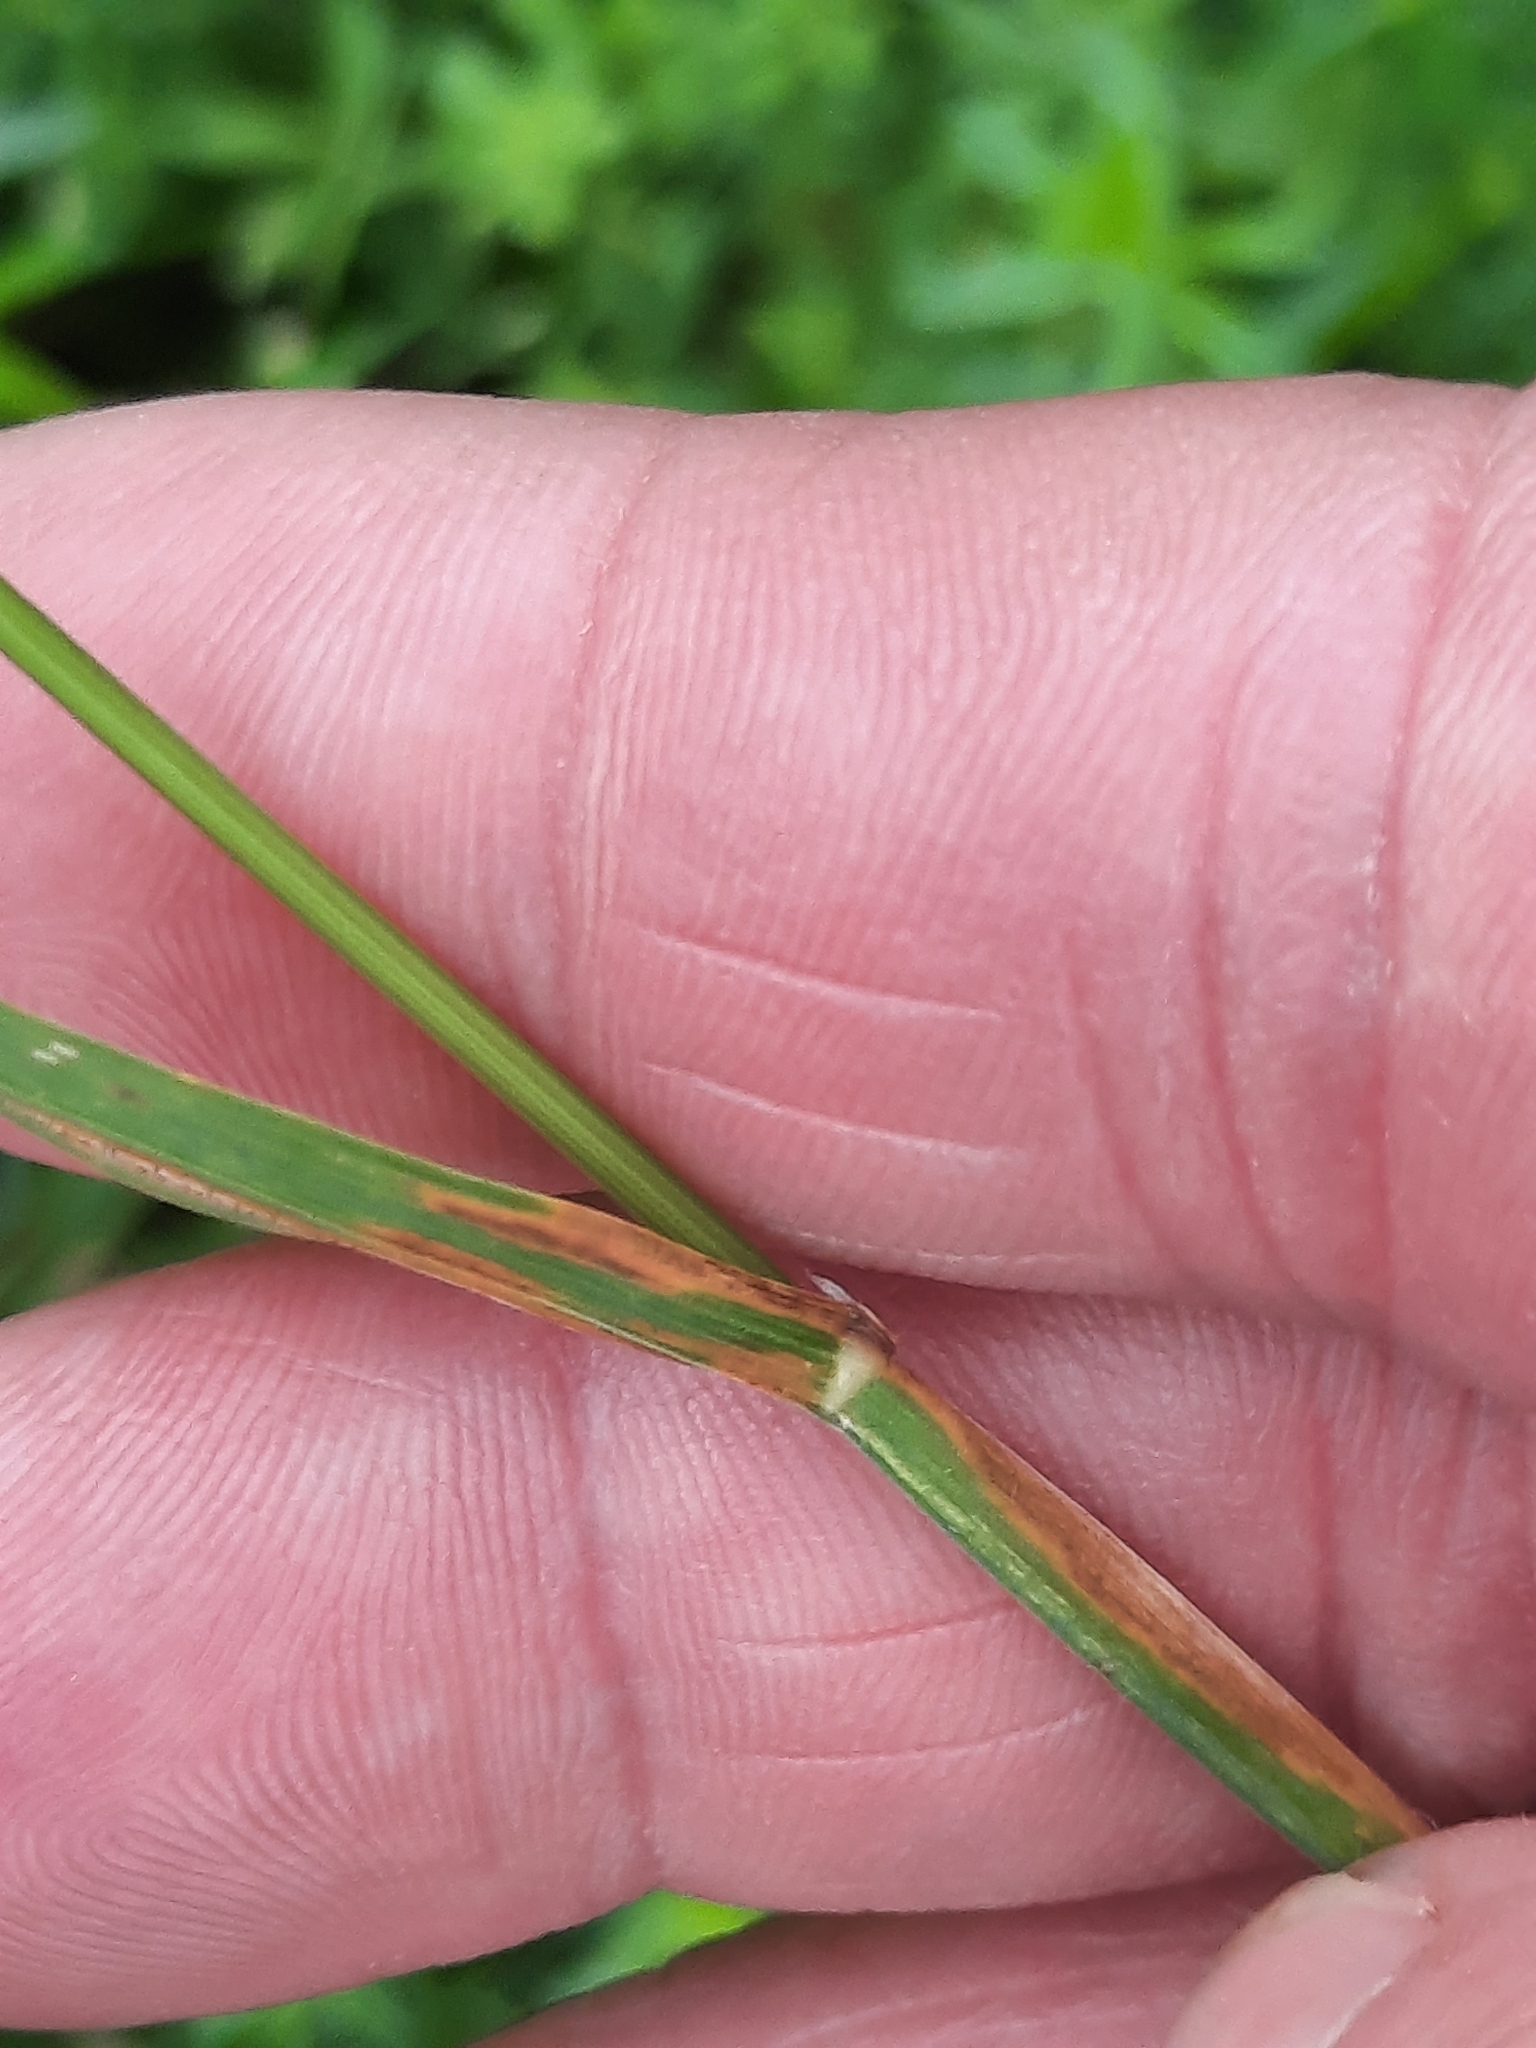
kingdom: Plantae
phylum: Tracheophyta
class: Liliopsida
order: Poales
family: Poaceae
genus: Dactylis
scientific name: Dactylis glomerata
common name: Orchardgrass
